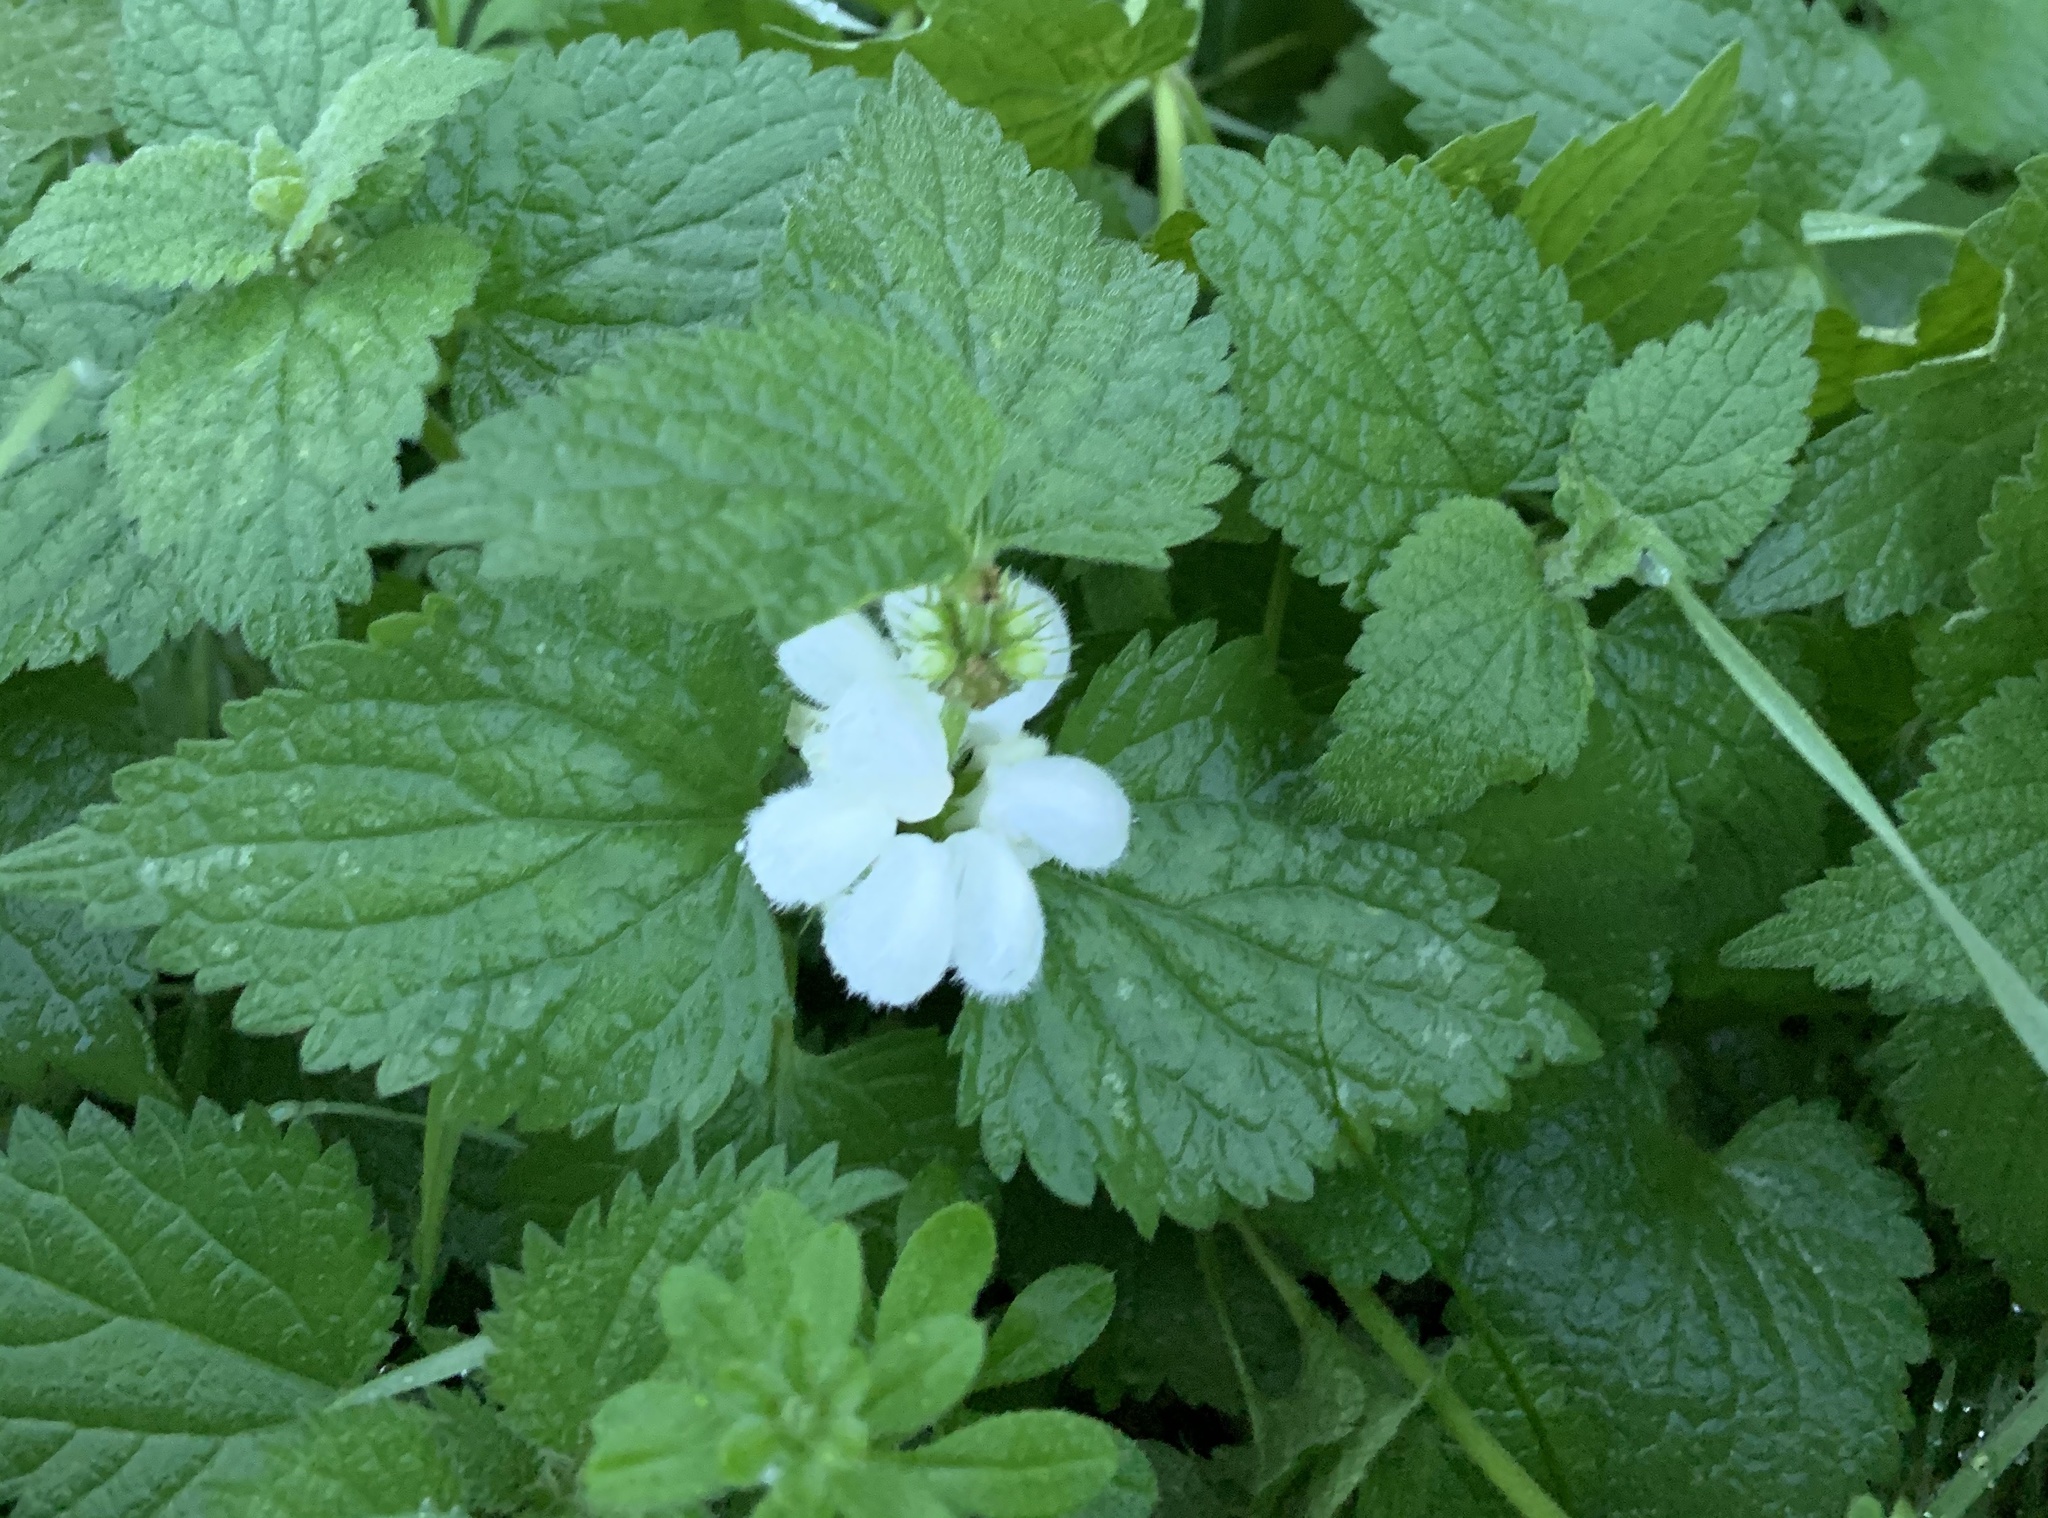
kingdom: Plantae
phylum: Tracheophyta
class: Magnoliopsida
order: Lamiales
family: Lamiaceae
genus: Lamium
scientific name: Lamium album
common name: White dead-nettle
